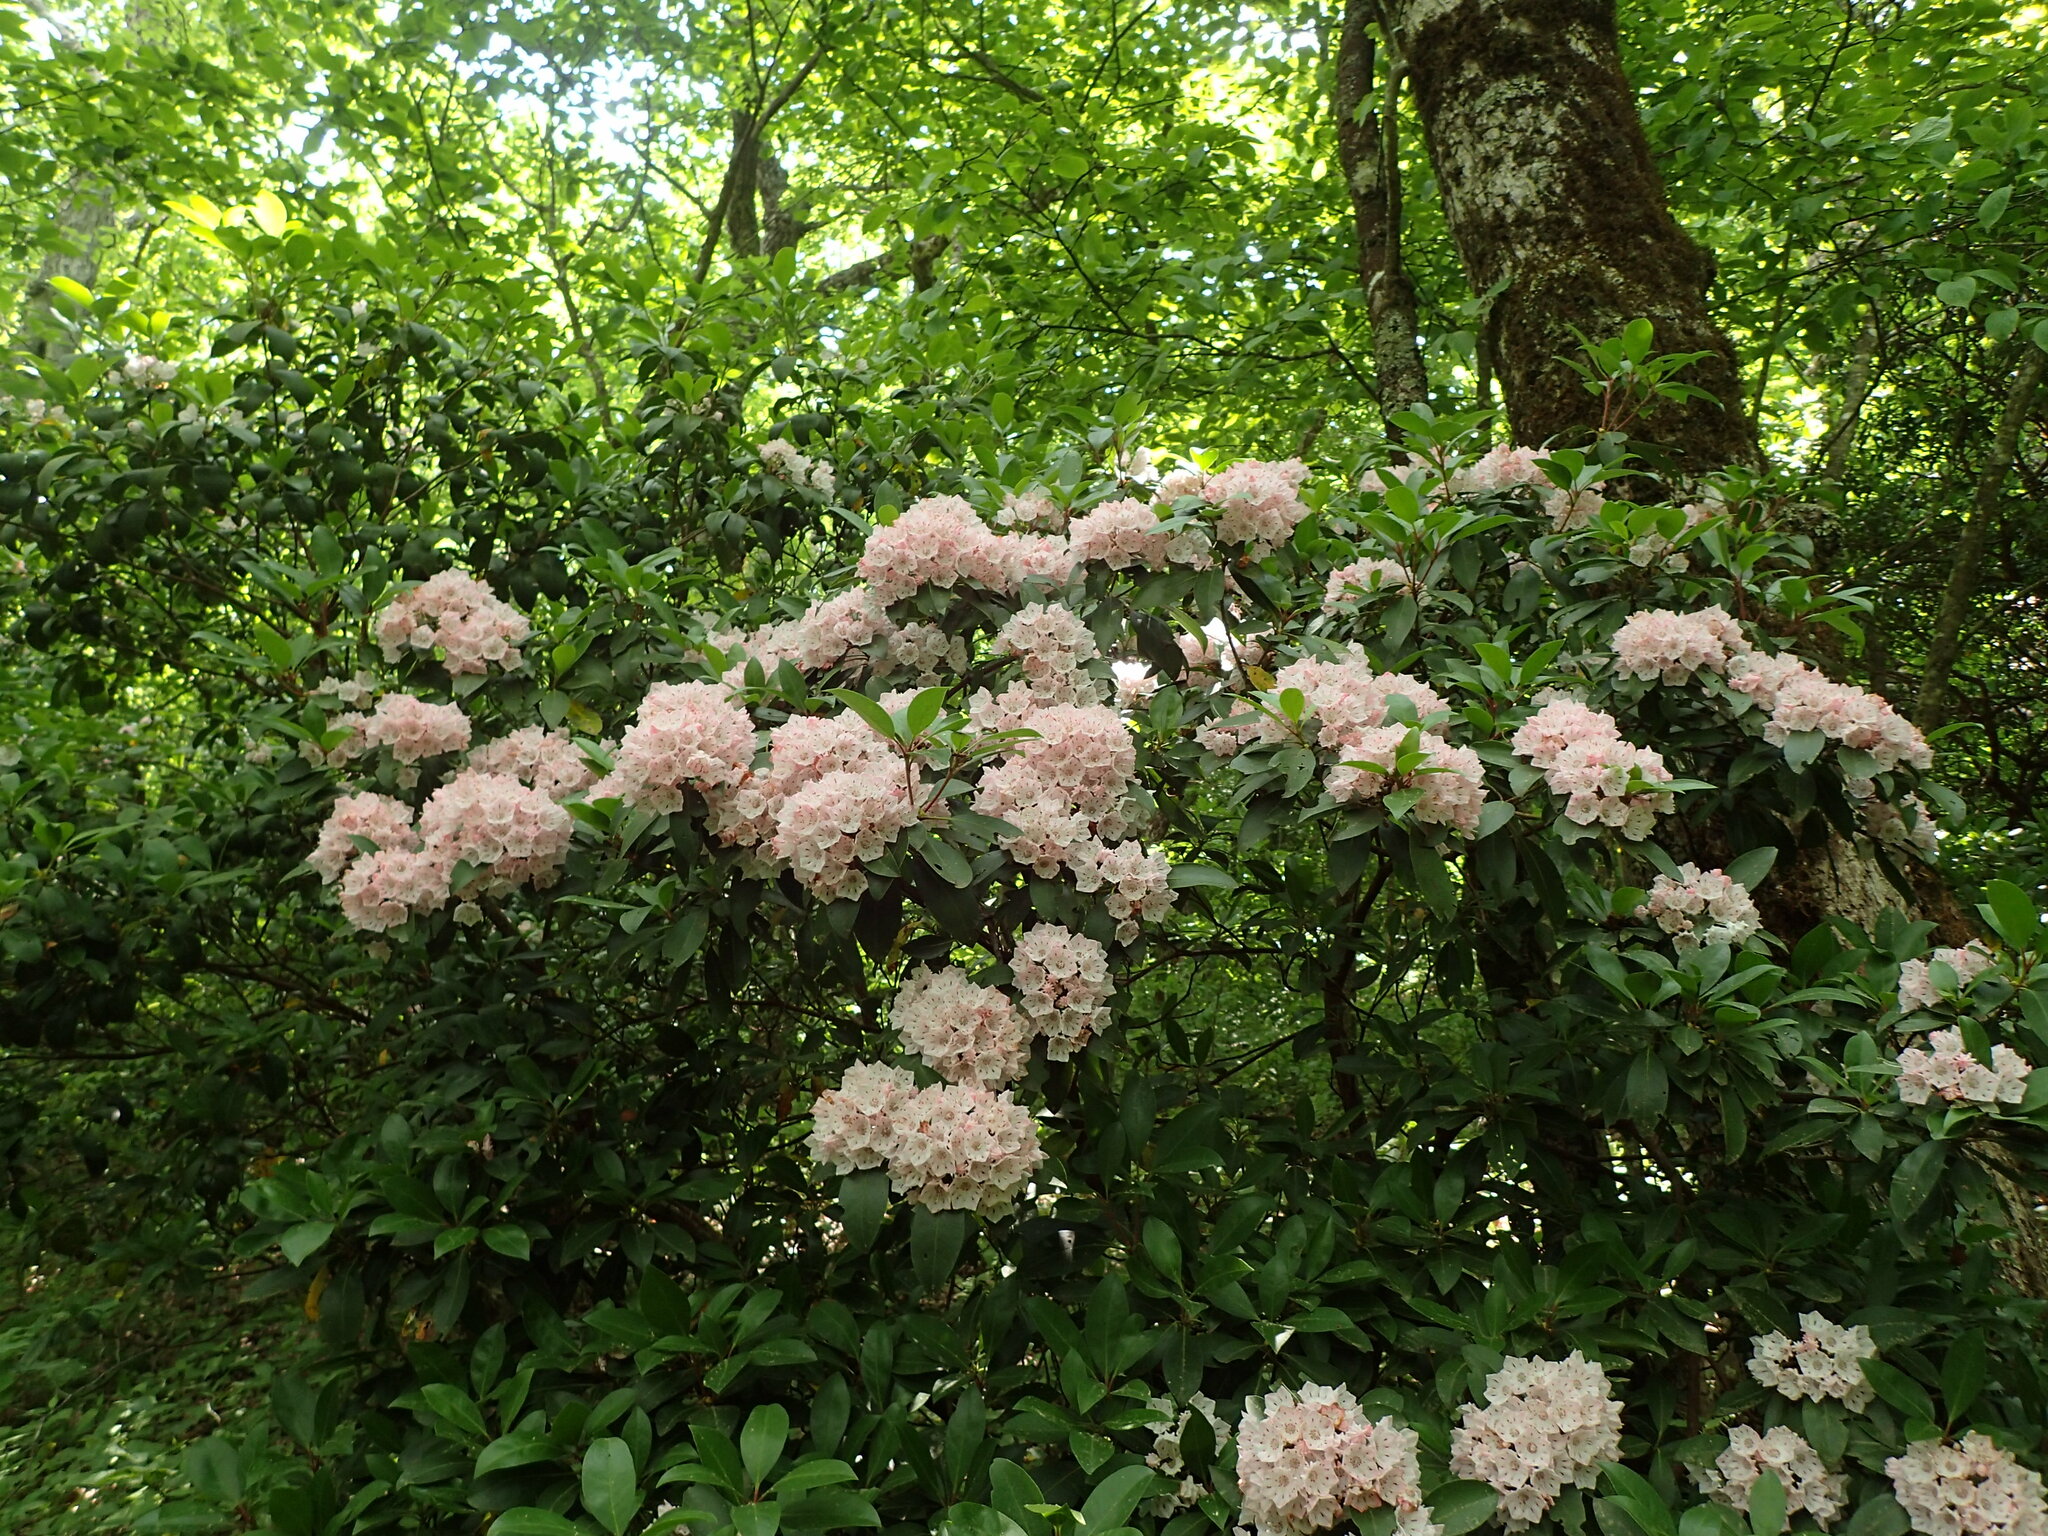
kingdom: Plantae
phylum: Tracheophyta
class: Magnoliopsida
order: Ericales
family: Ericaceae
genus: Kalmia
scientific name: Kalmia latifolia
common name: Mountain-laurel
